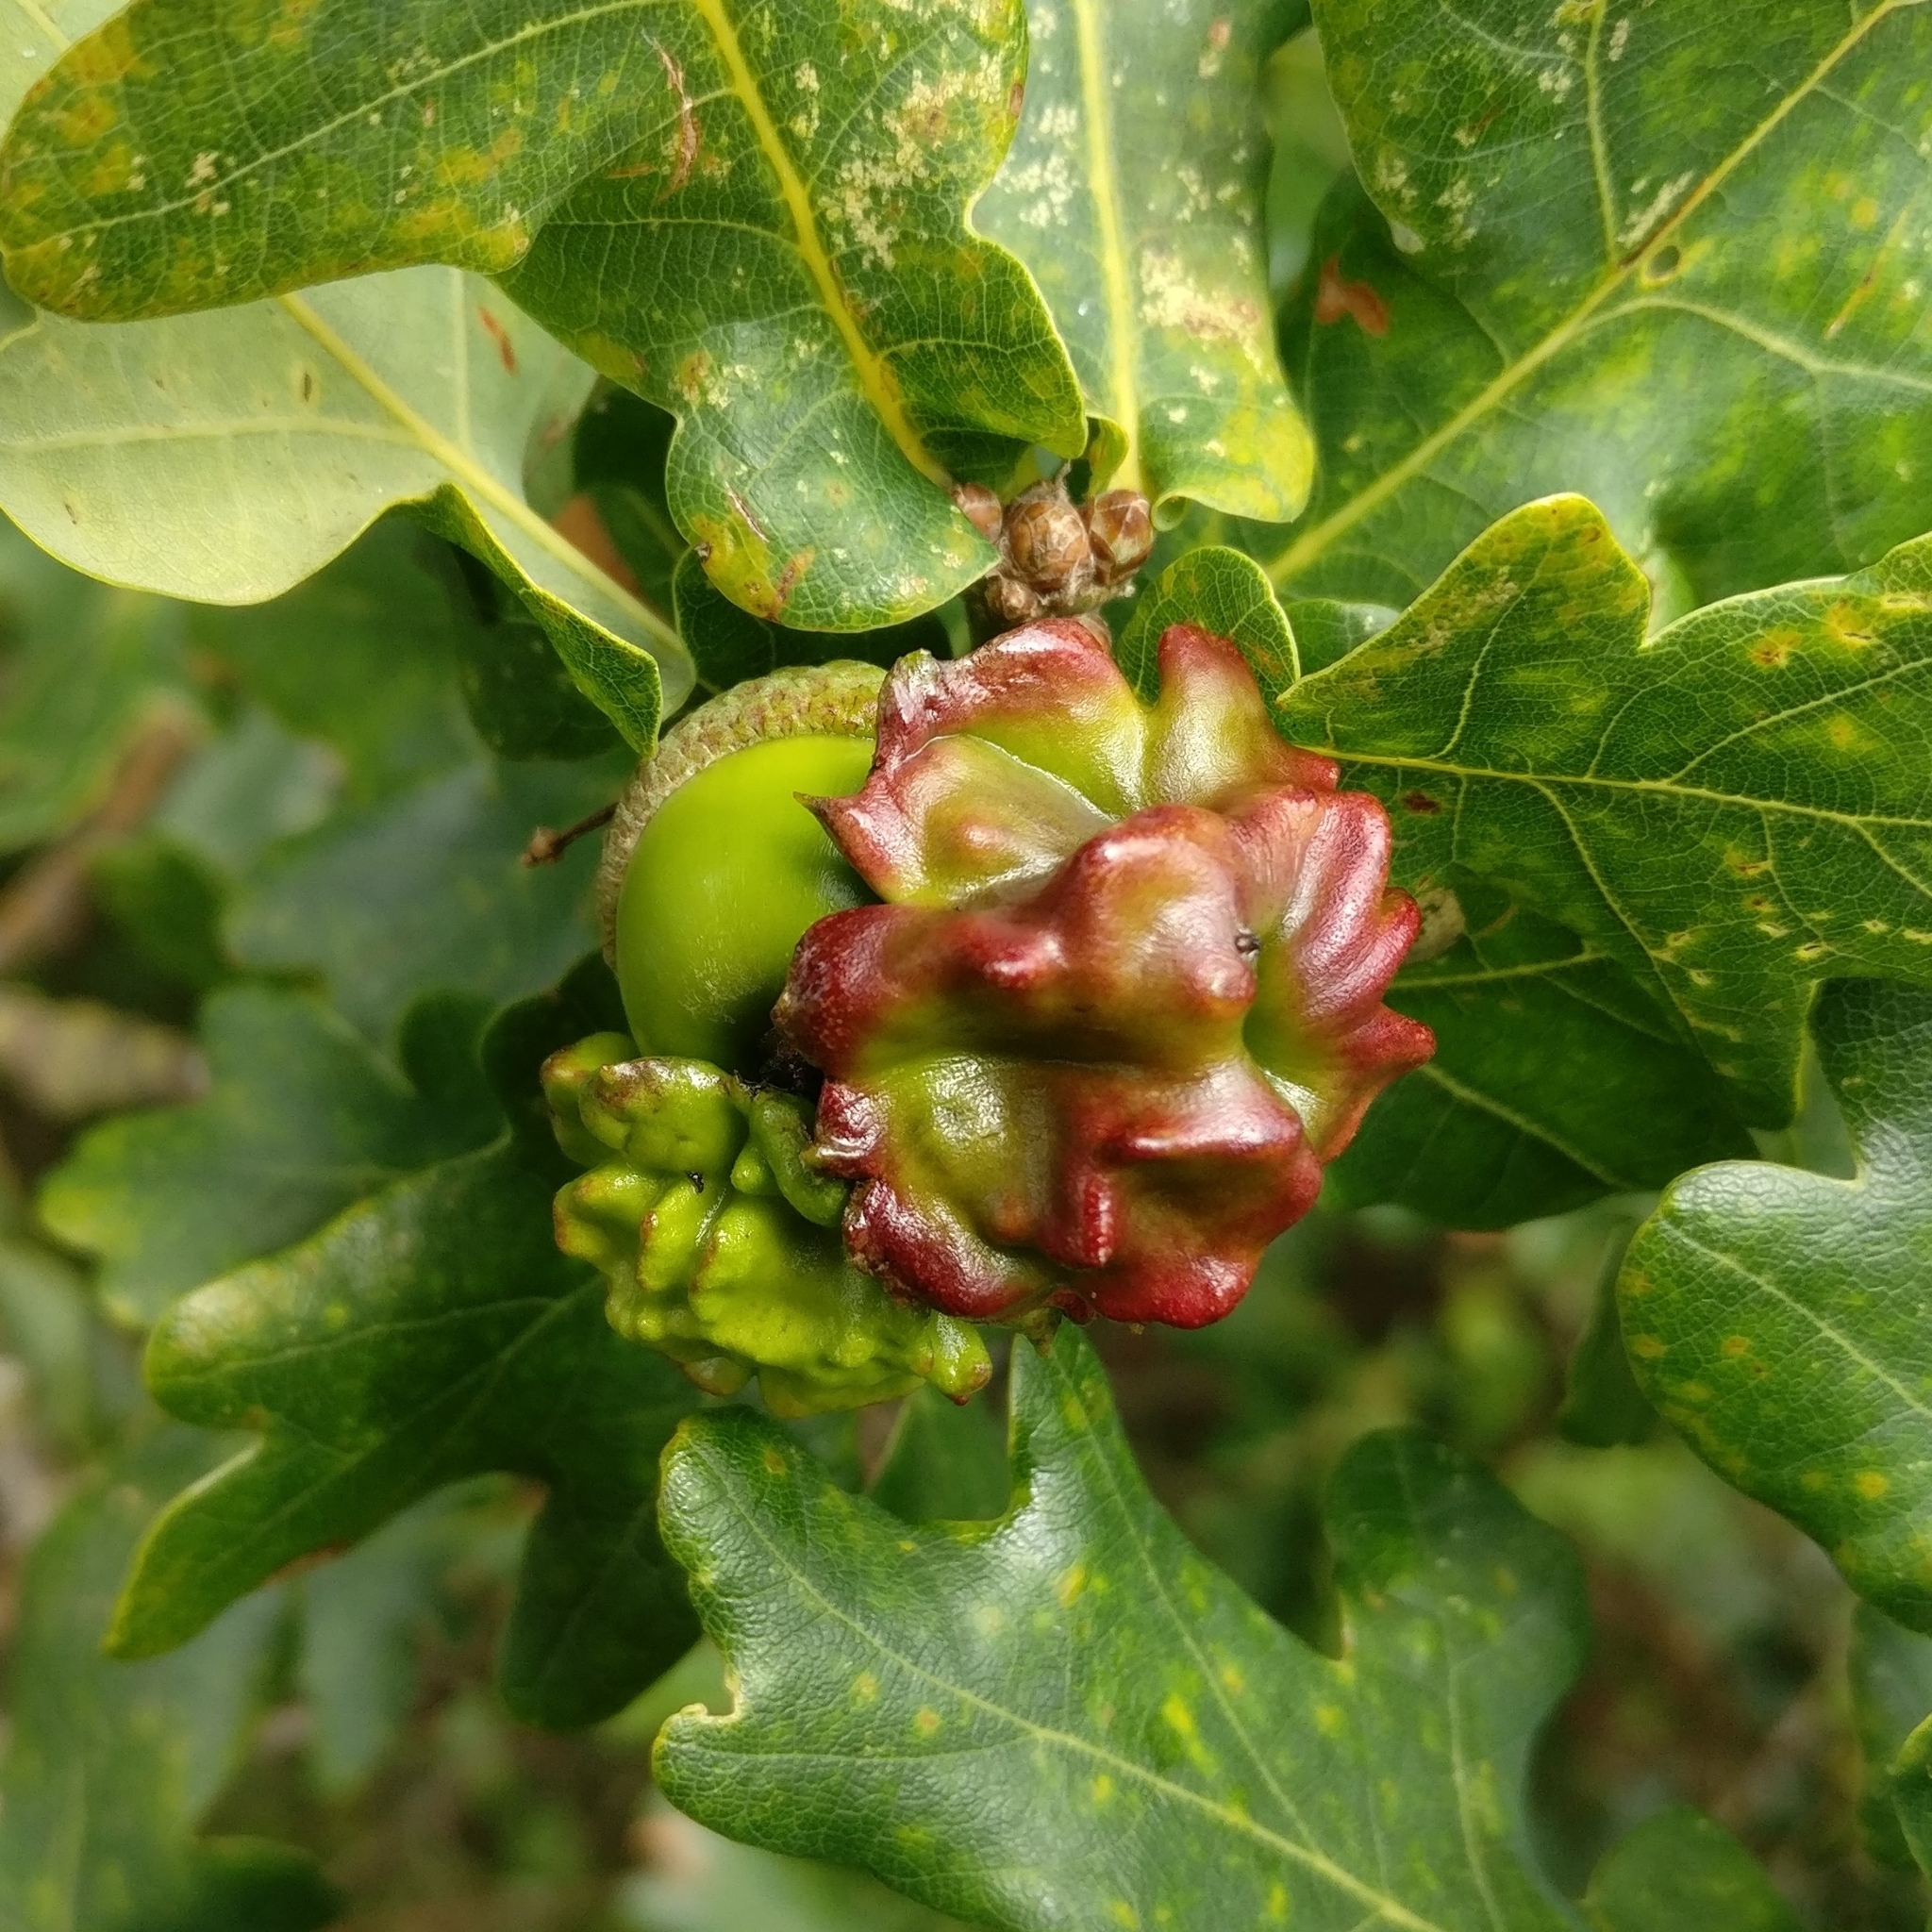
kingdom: Animalia
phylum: Arthropoda
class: Insecta
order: Hymenoptera
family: Cynipidae
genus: Andricus
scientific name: Andricus quercuscalicis
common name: Knopper gall
